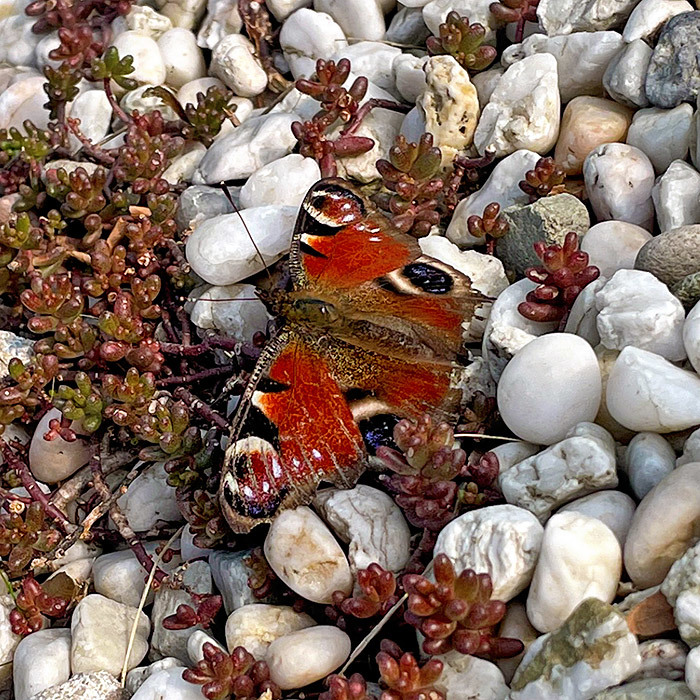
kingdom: Animalia
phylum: Arthropoda
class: Insecta
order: Lepidoptera
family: Nymphalidae
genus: Aglais
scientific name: Aglais io
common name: Peacock
